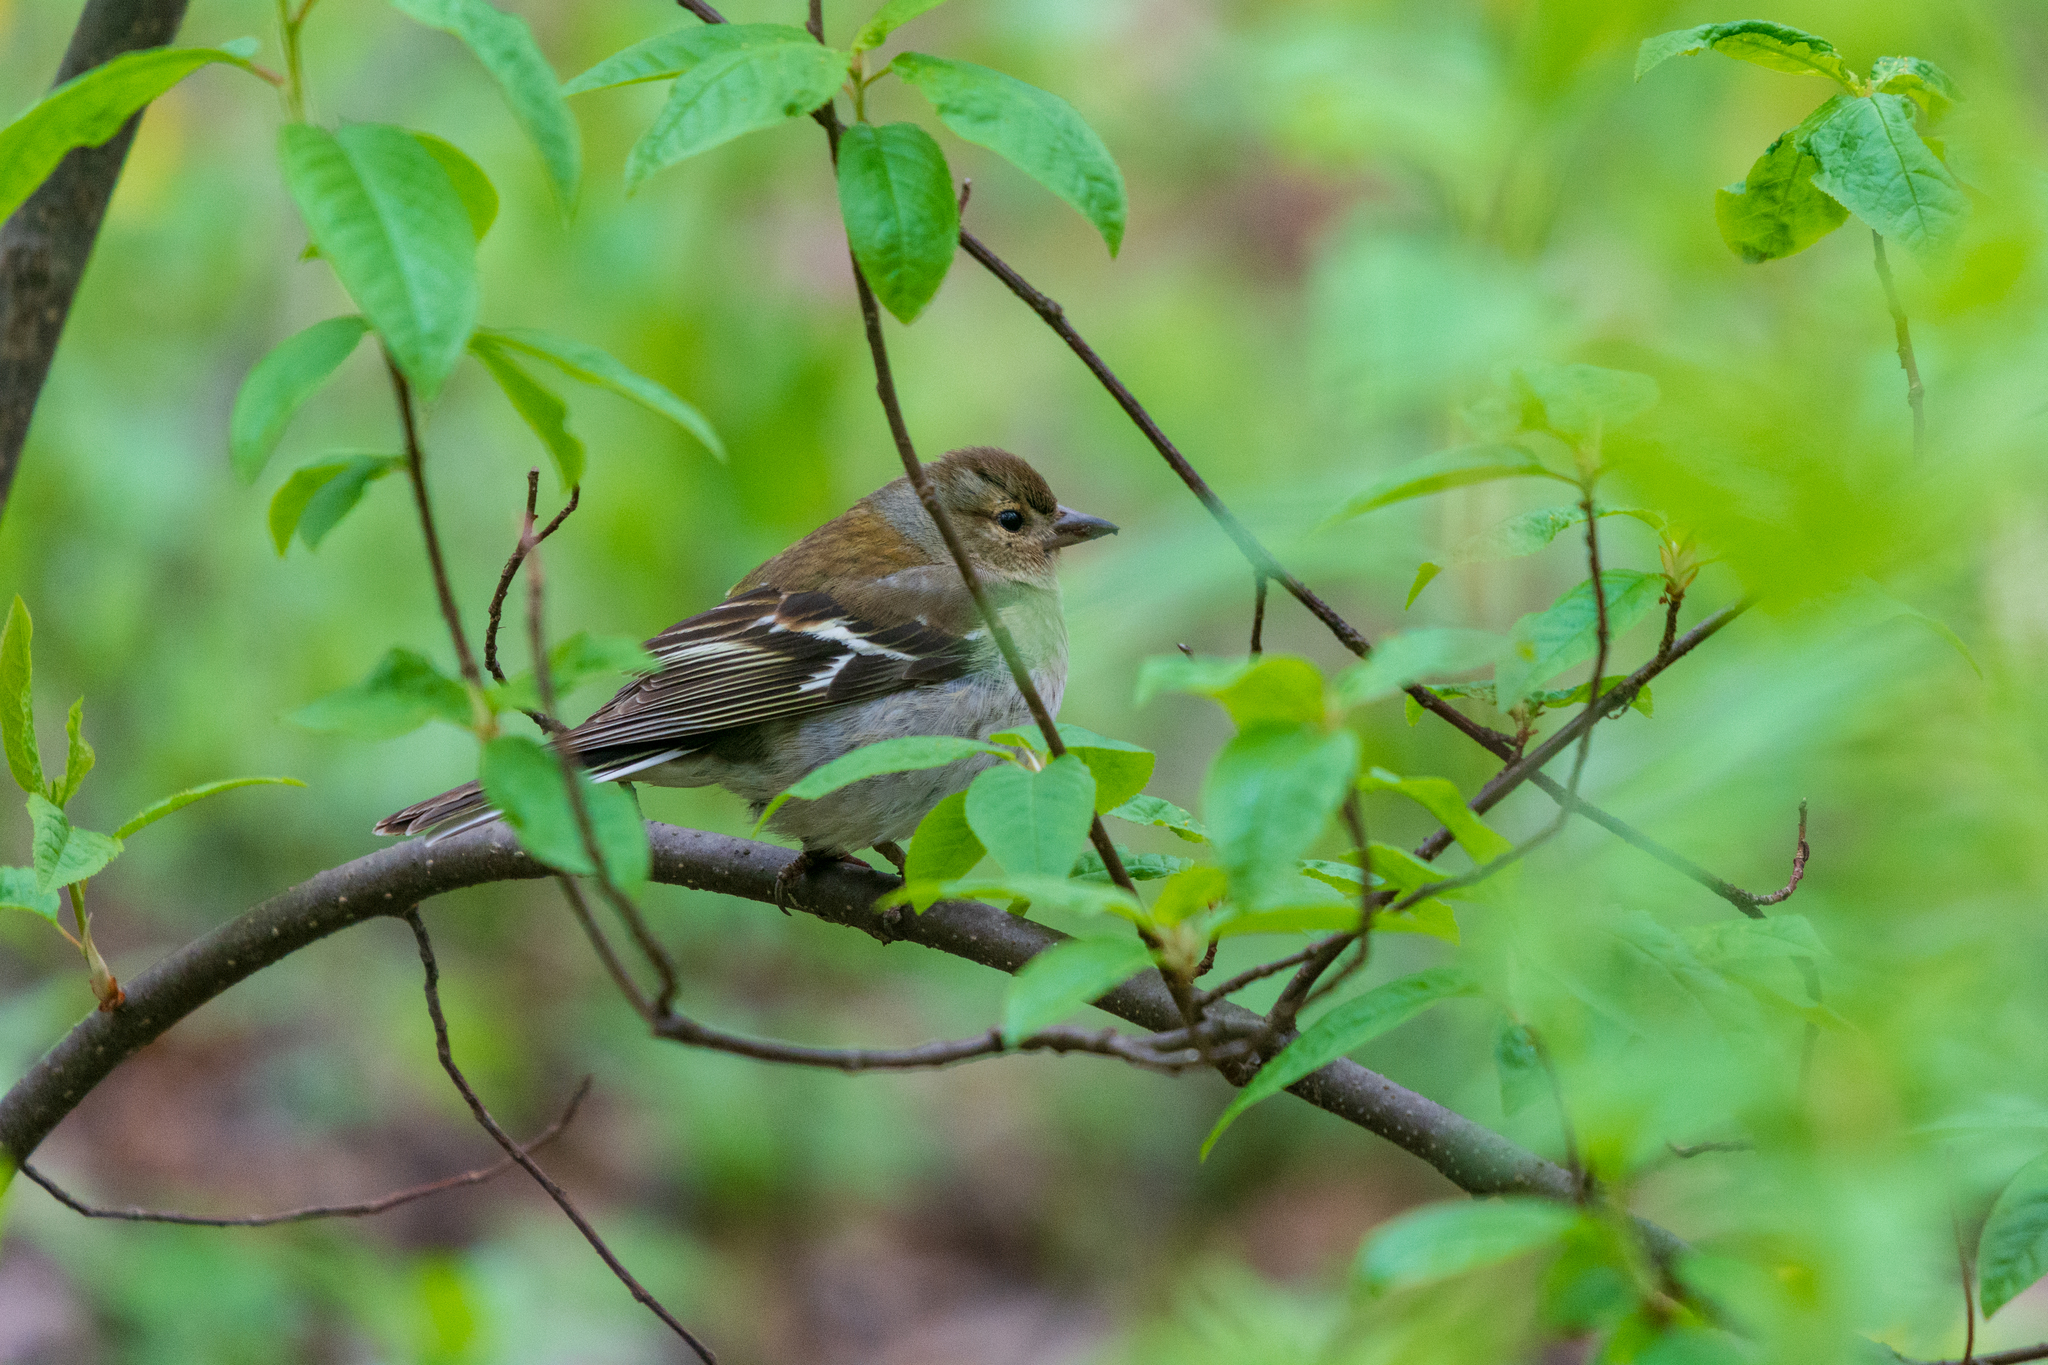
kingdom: Animalia
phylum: Chordata
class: Aves
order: Passeriformes
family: Fringillidae
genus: Fringilla
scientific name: Fringilla coelebs
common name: Common chaffinch
